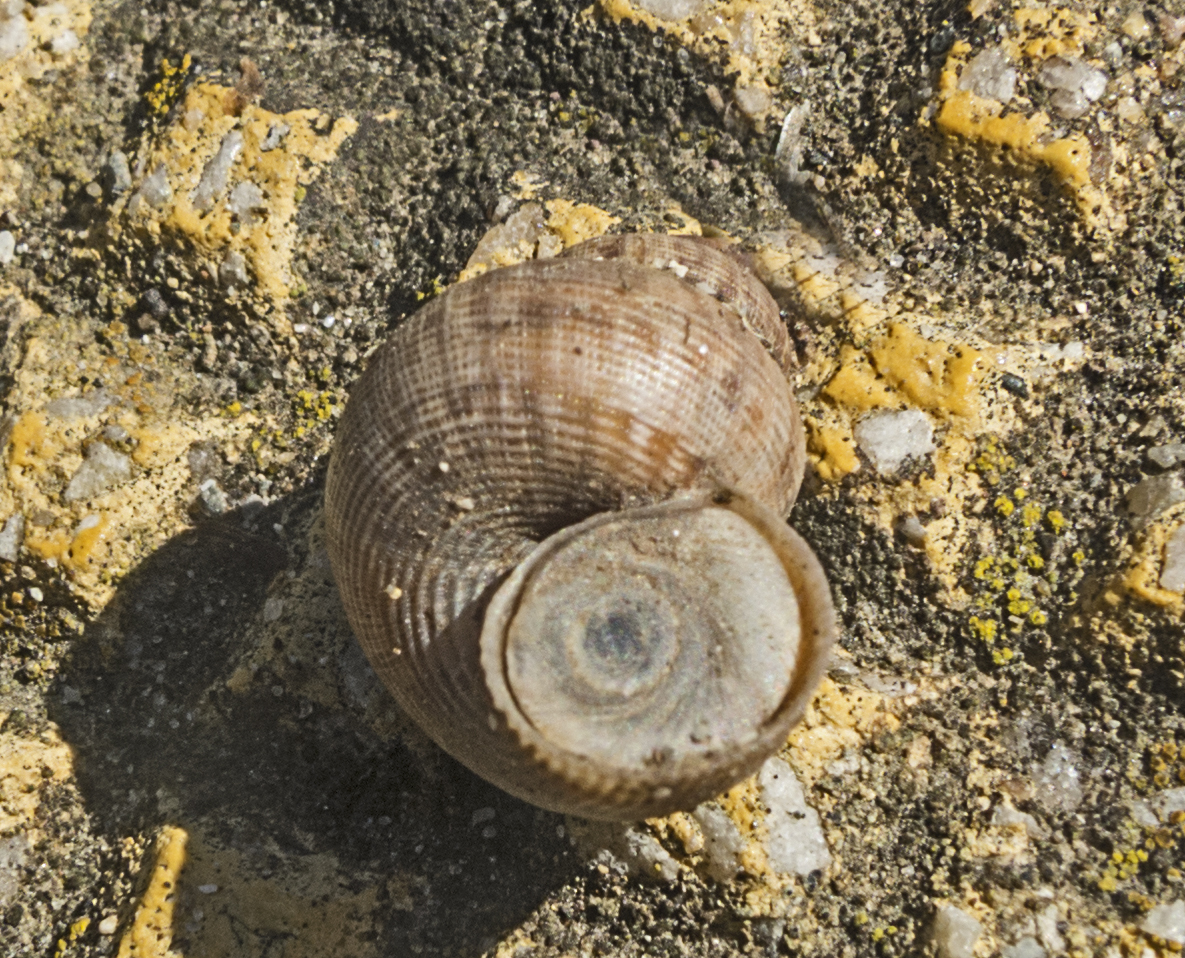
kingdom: Animalia
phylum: Mollusca
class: Gastropoda
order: Littorinimorpha
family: Pomatiidae
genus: Pomatias
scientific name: Pomatias elegans
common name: Red-mouthed snail
